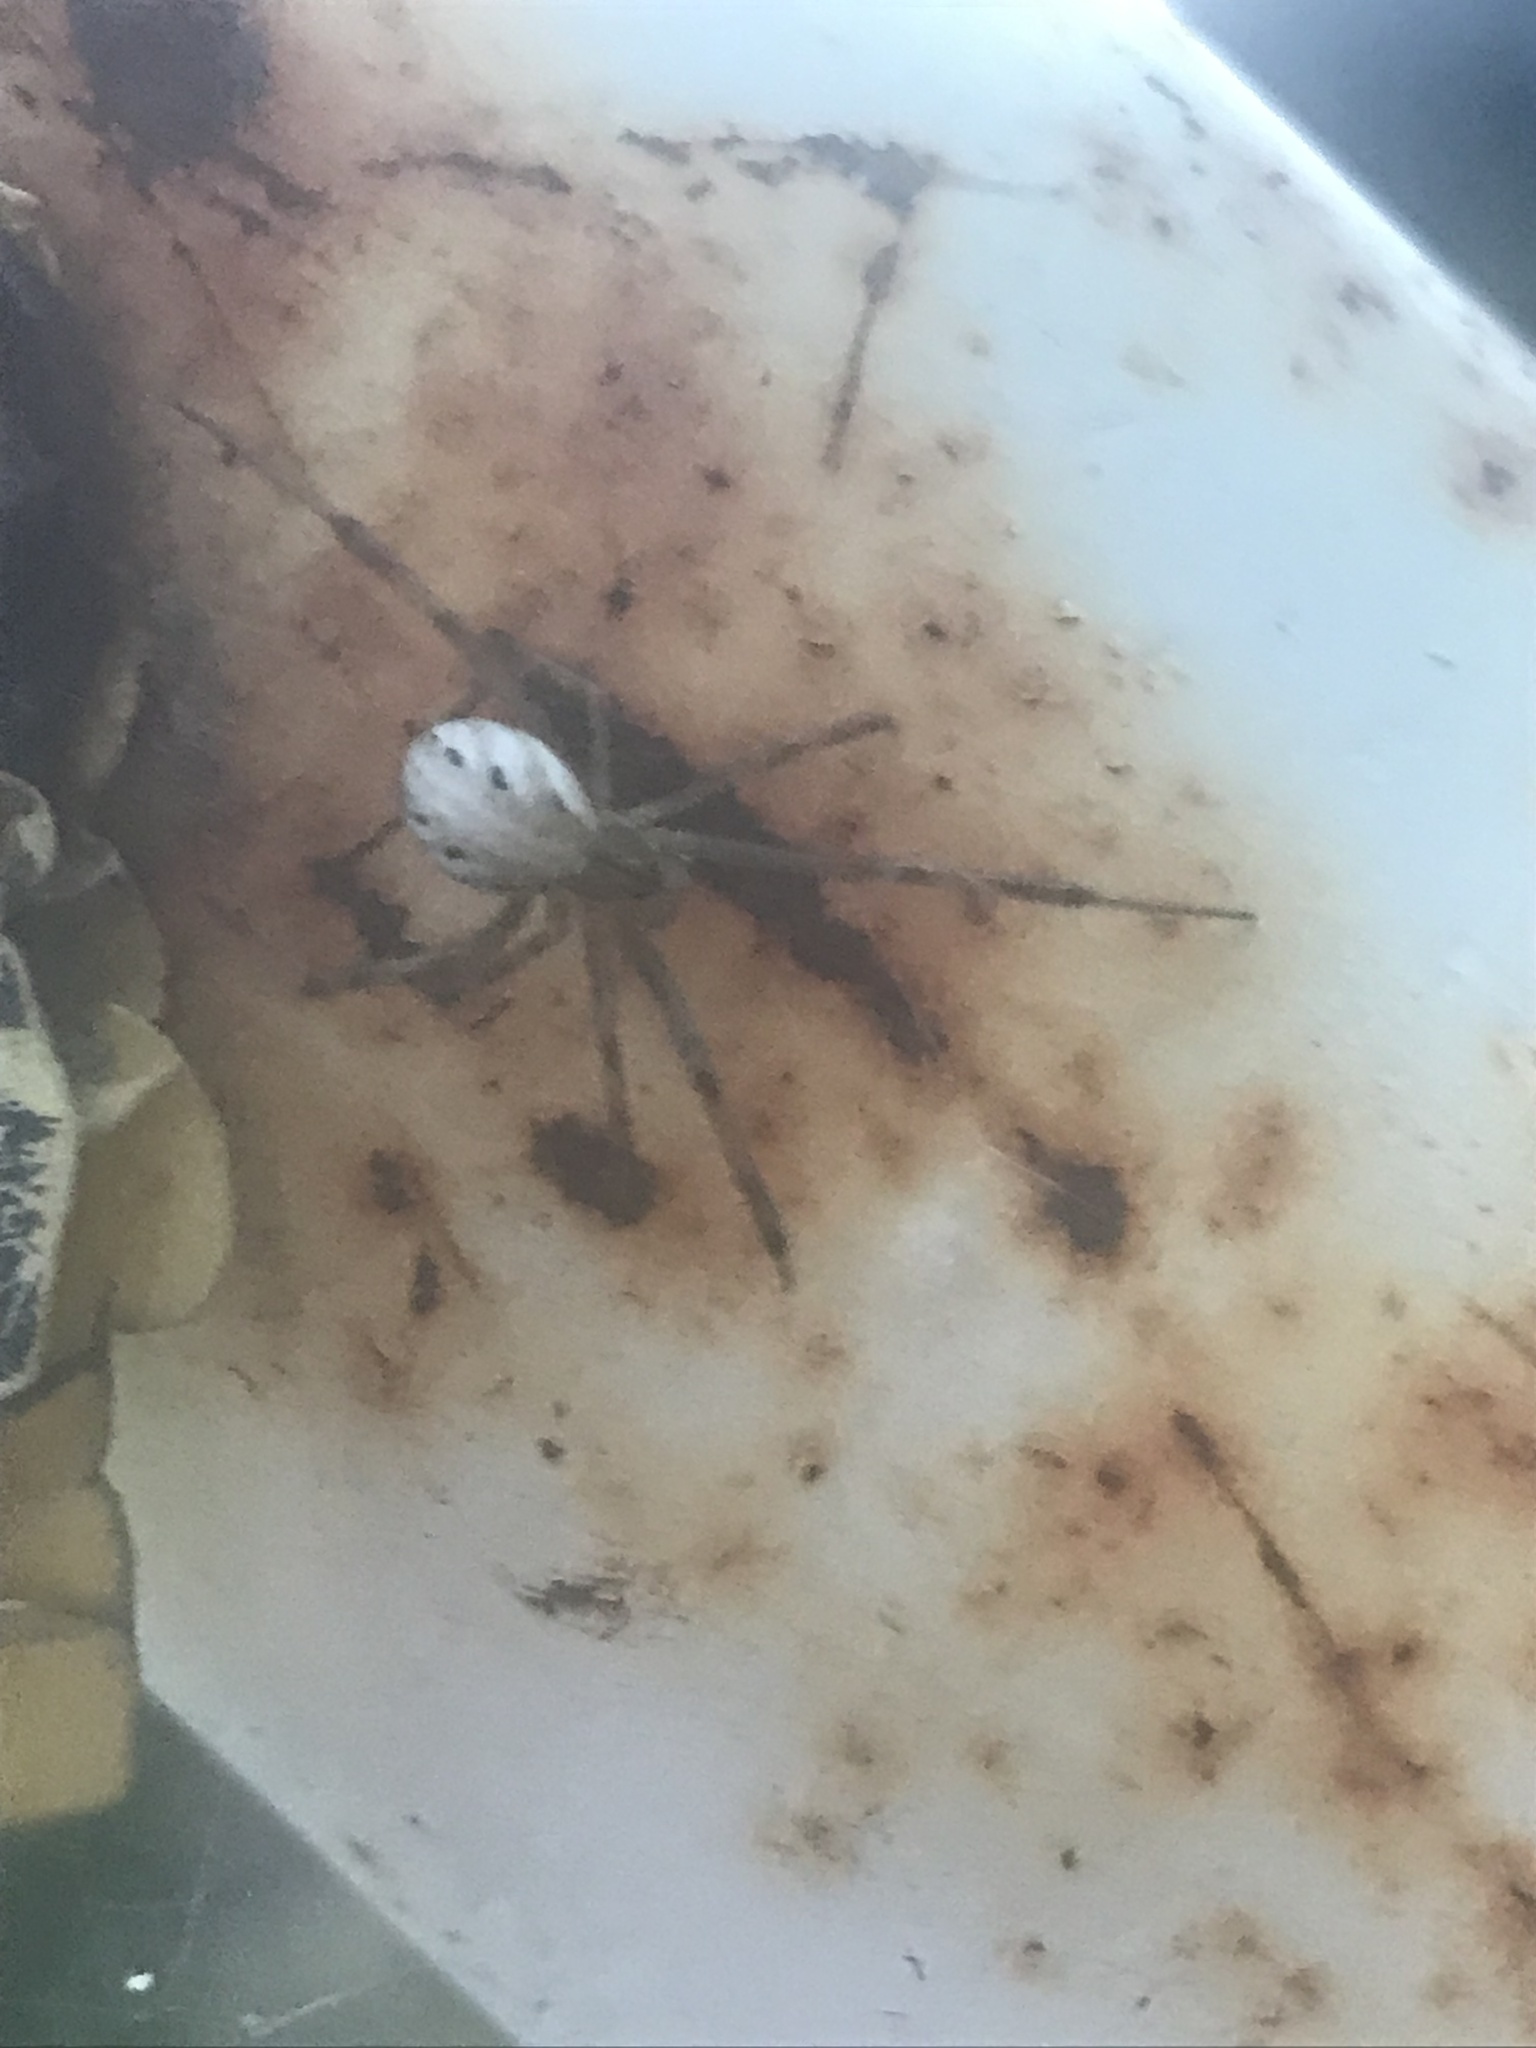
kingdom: Animalia
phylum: Arthropoda
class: Arachnida
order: Araneae
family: Theridiidae
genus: Latrodectus
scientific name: Latrodectus hesperus
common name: Western black widow
